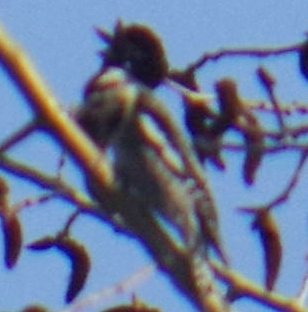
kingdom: Animalia
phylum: Chordata
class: Aves
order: Piciformes
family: Picidae
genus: Sphyrapicus
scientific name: Sphyrapicus varius
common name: Yellow-bellied sapsucker
